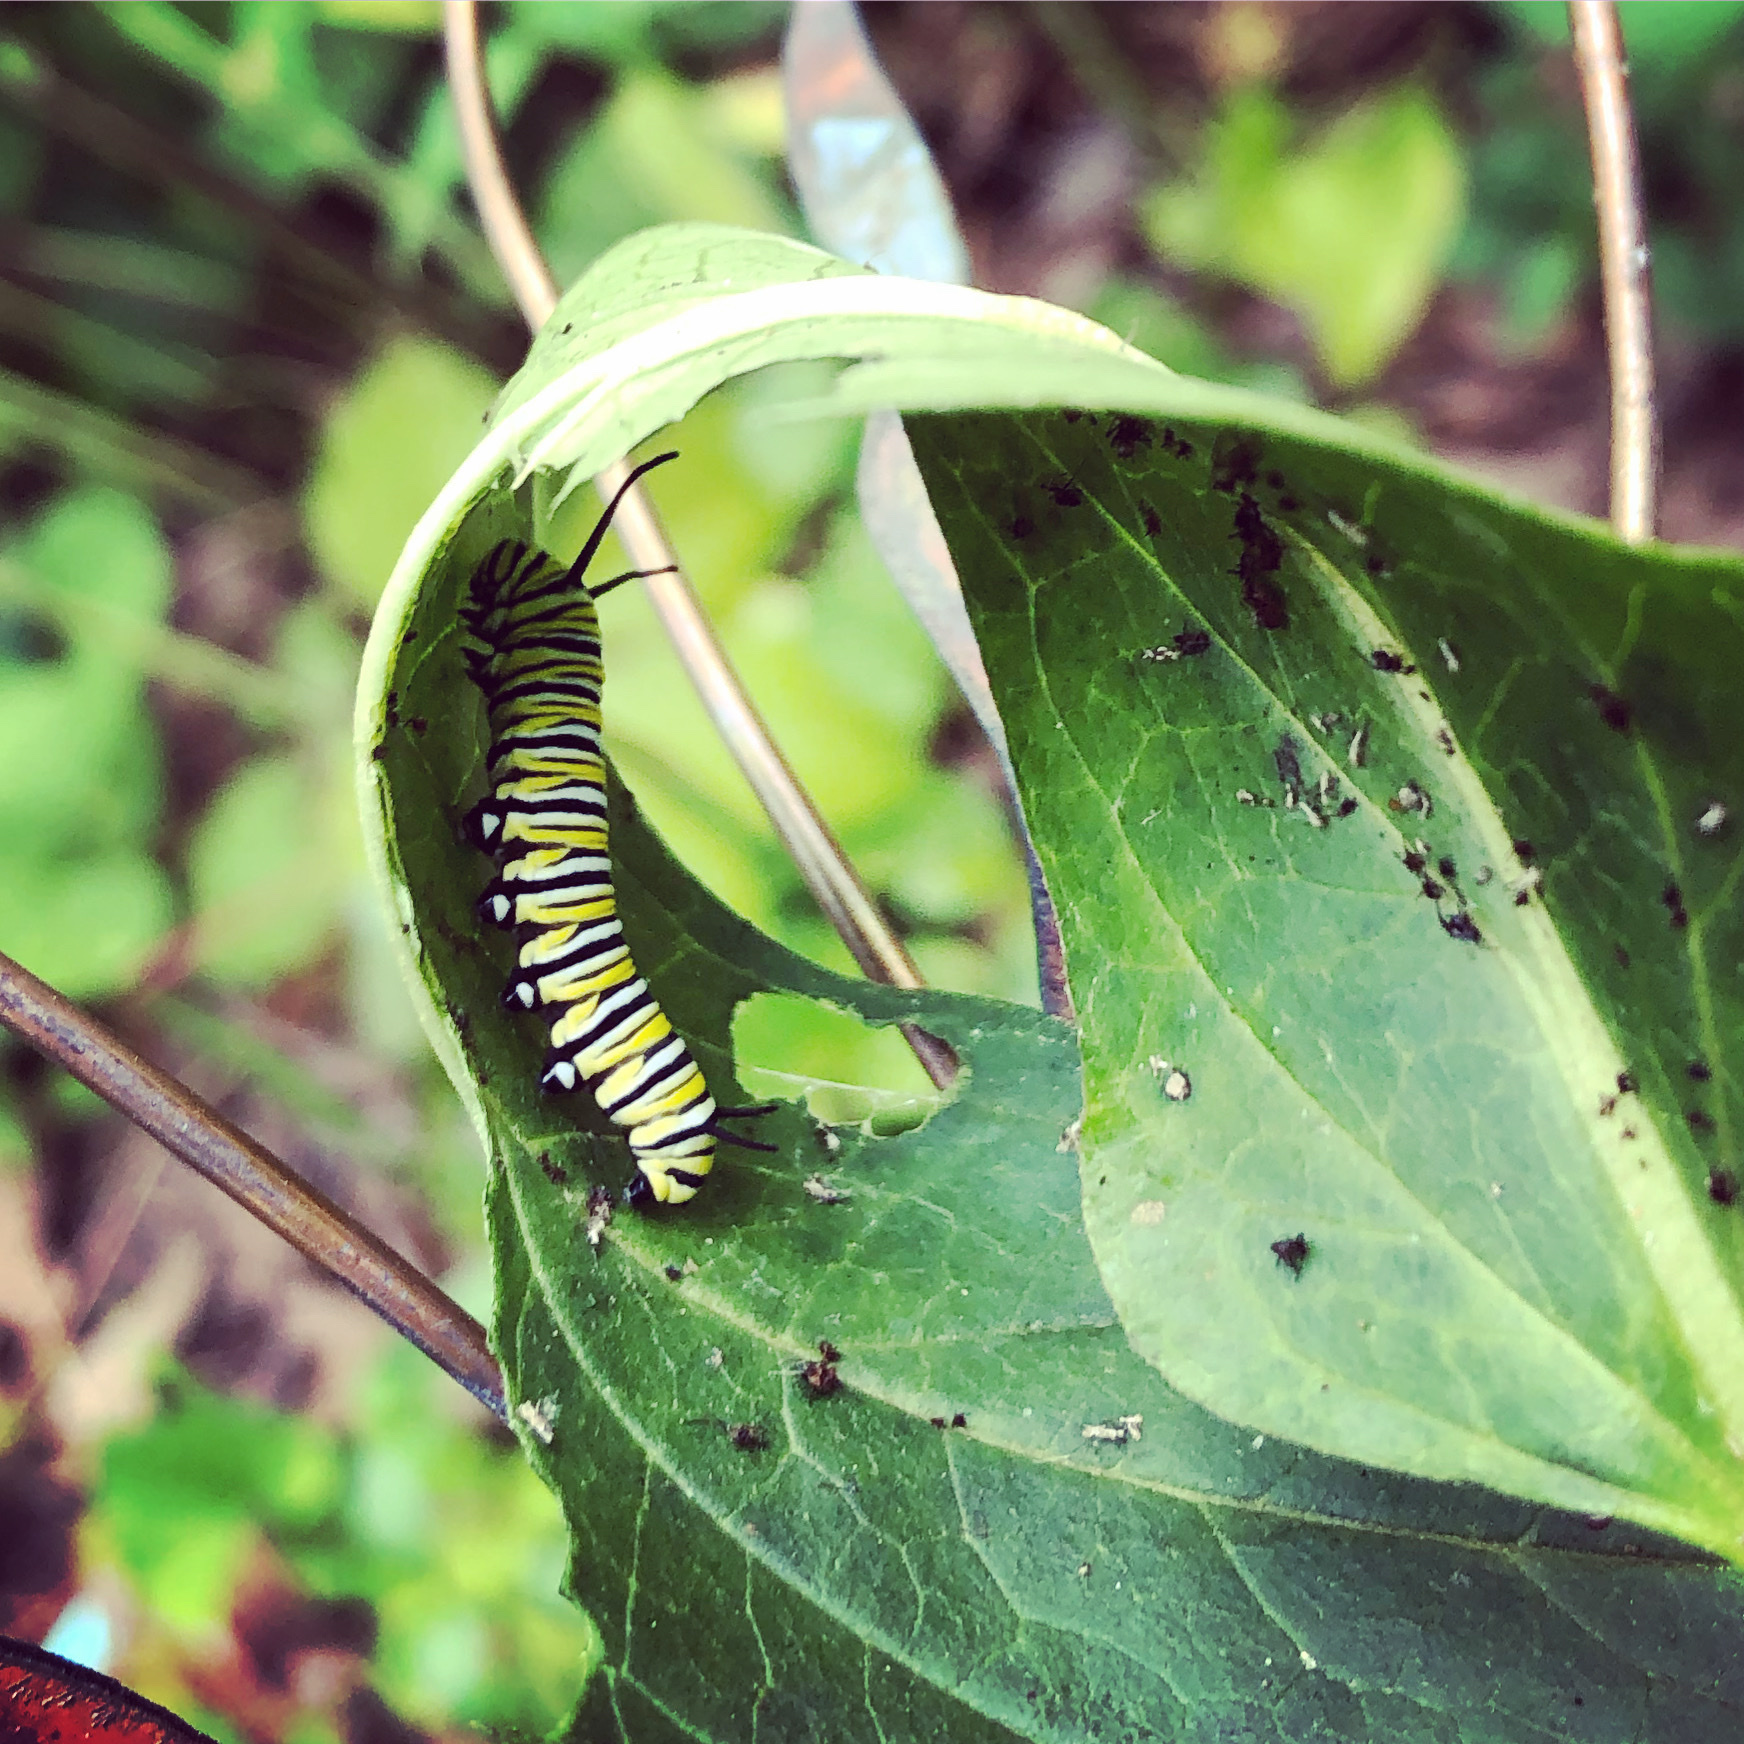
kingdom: Animalia
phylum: Arthropoda
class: Insecta
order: Lepidoptera
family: Nymphalidae
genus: Danaus
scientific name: Danaus plexippus
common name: Monarch
